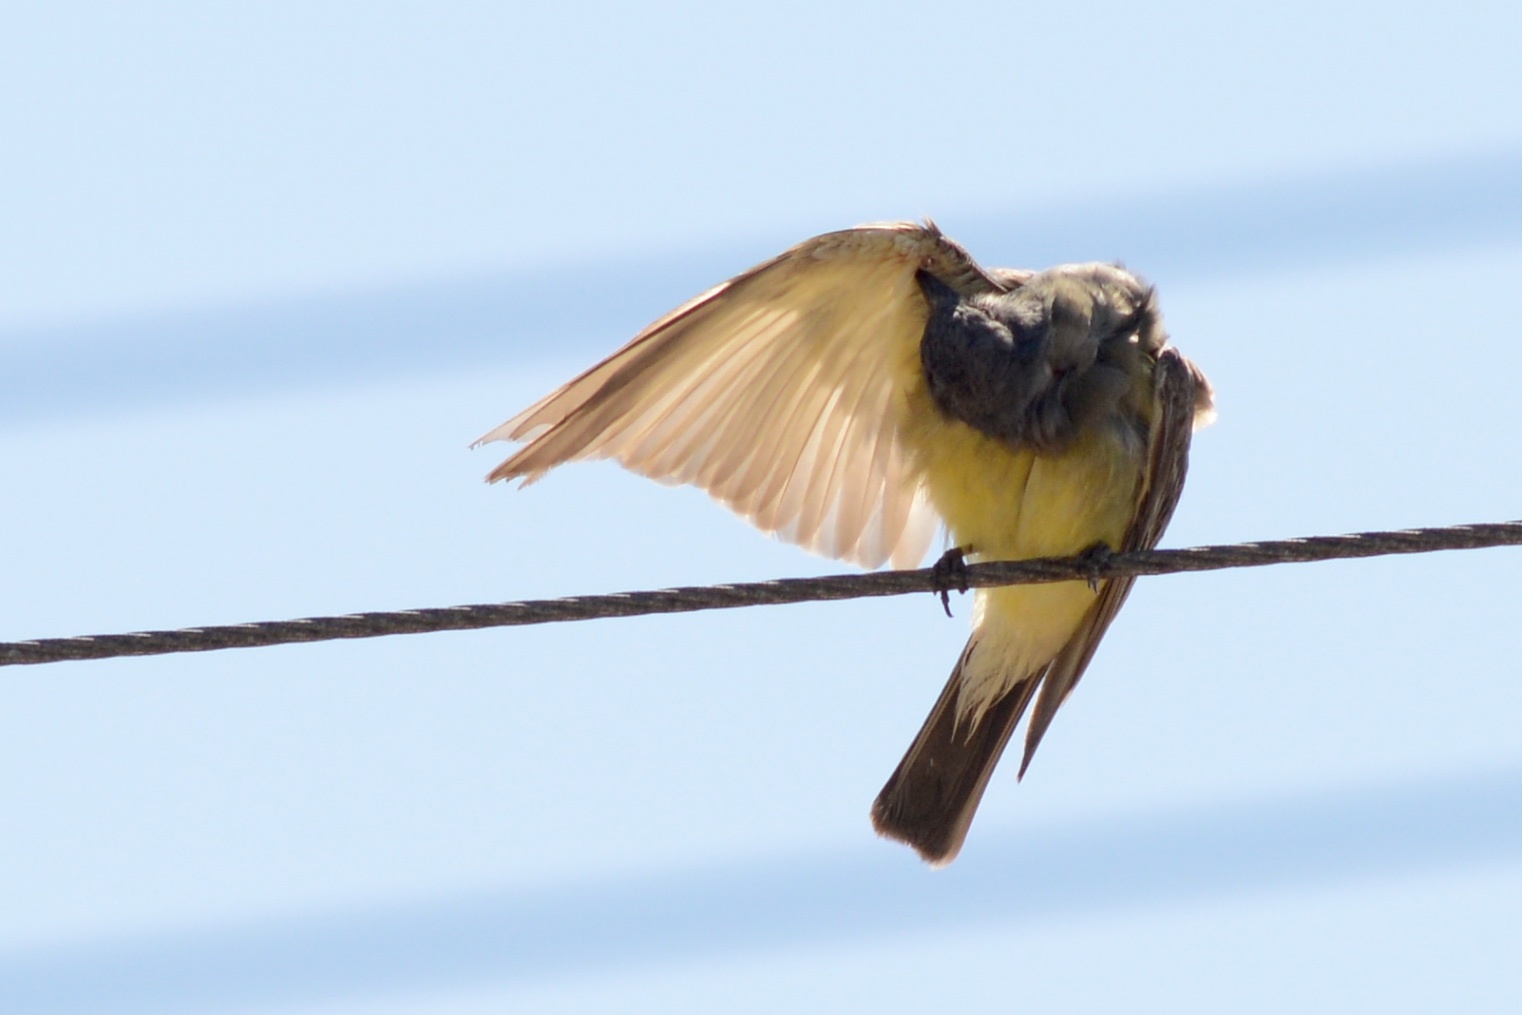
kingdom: Animalia
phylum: Chordata
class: Aves
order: Passeriformes
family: Tyrannidae
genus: Tyrannus
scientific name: Tyrannus vociferans
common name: Cassin's kingbird
